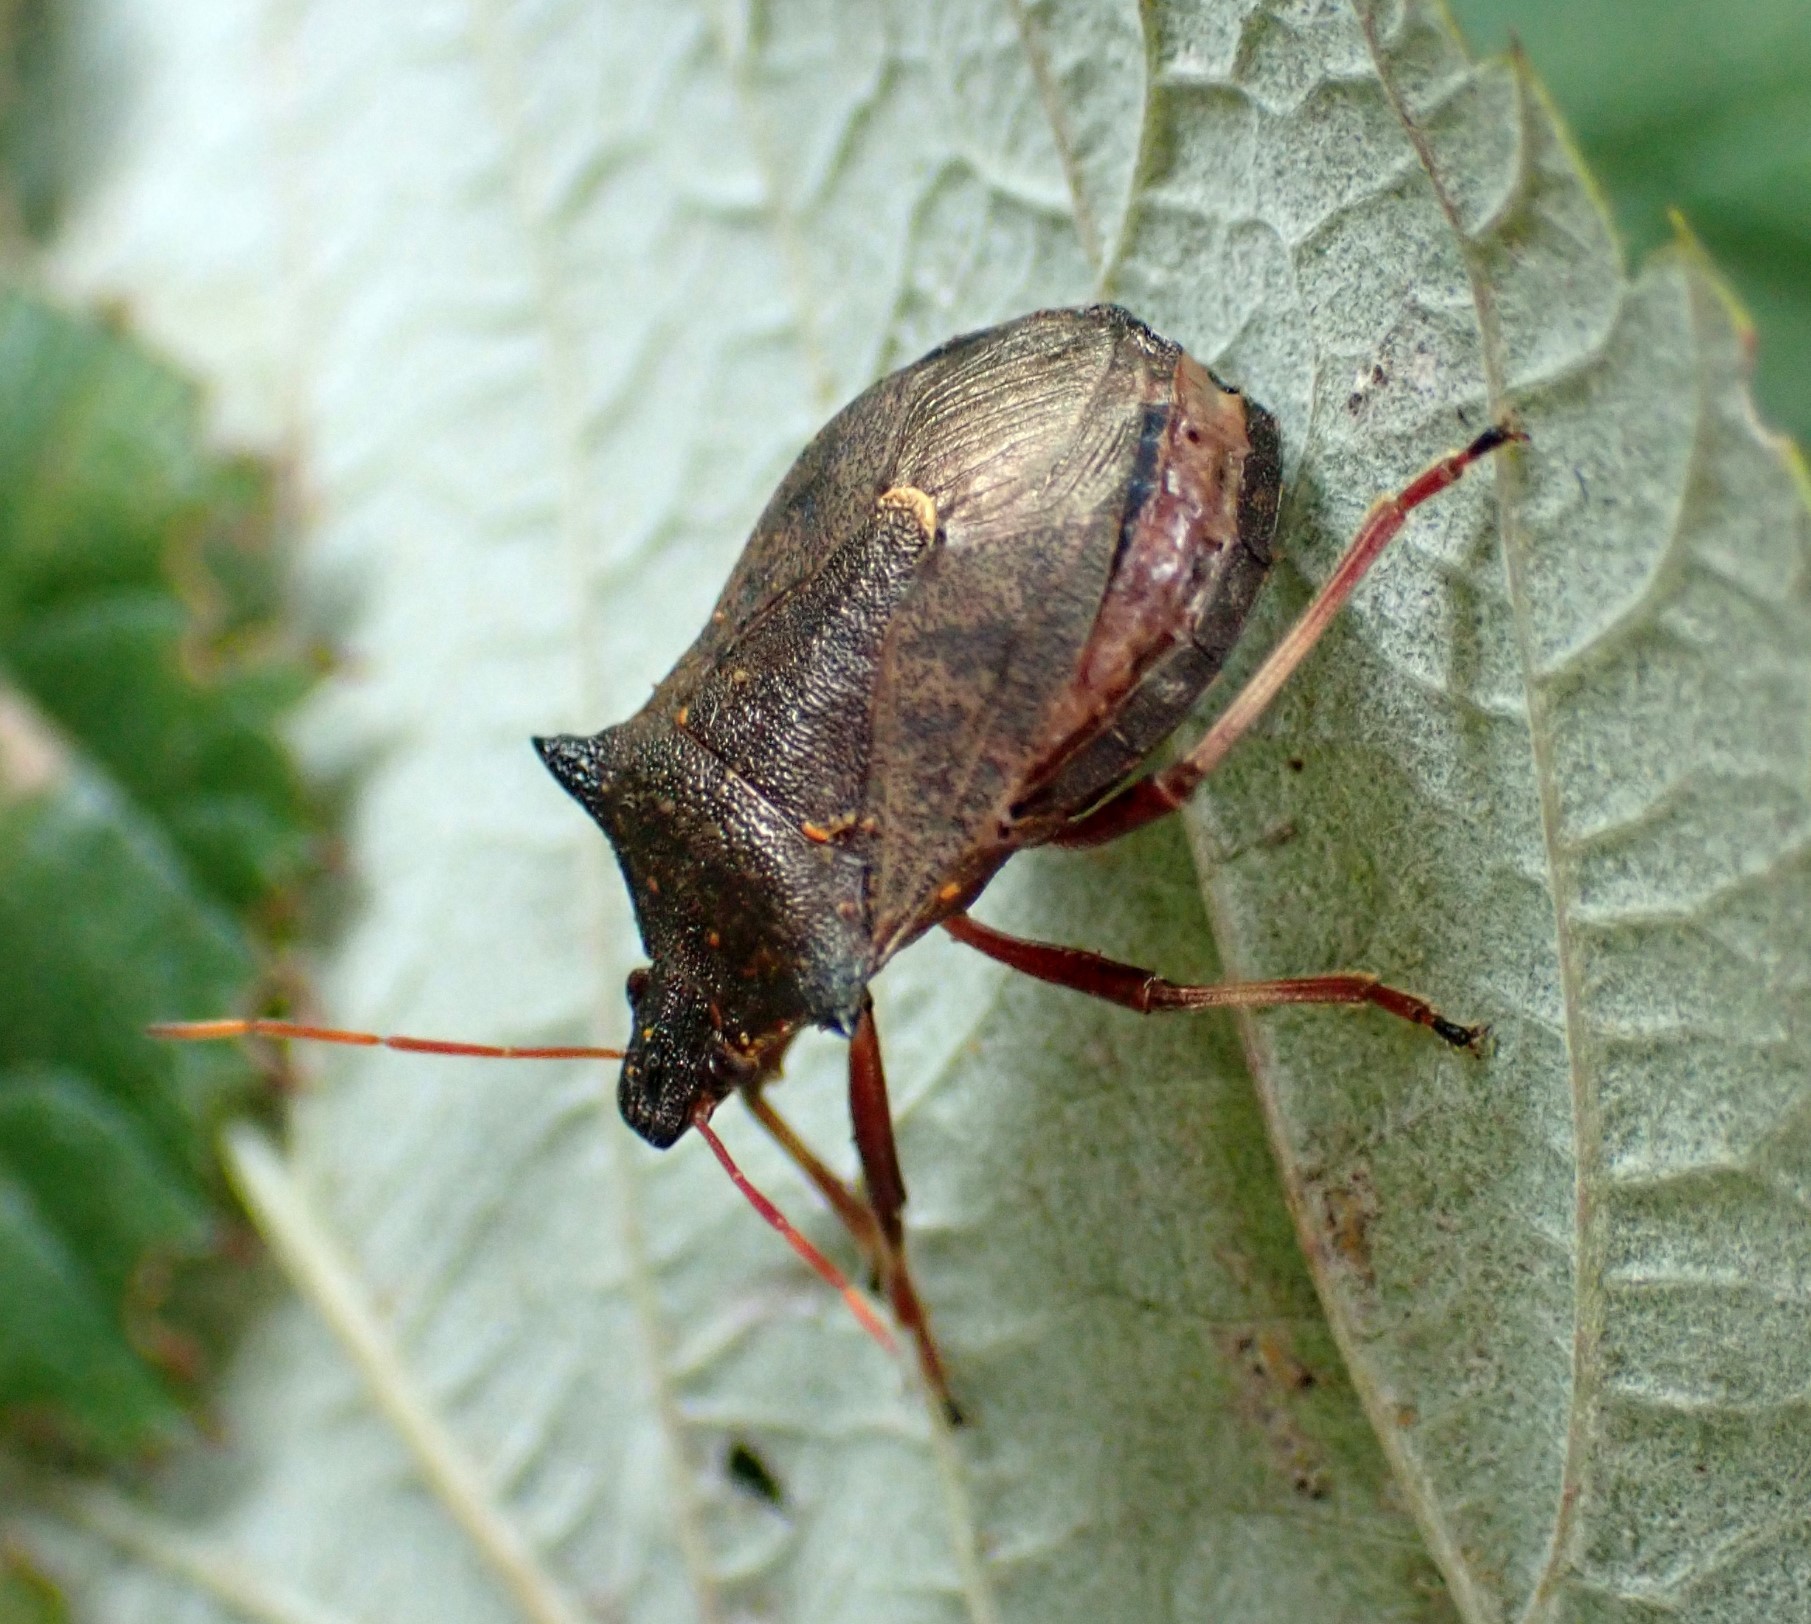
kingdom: Animalia
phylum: Arthropoda
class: Insecta
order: Hemiptera
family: Pentatomidae
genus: Picromerus
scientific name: Picromerus bidens
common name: Spiked shieldbug
